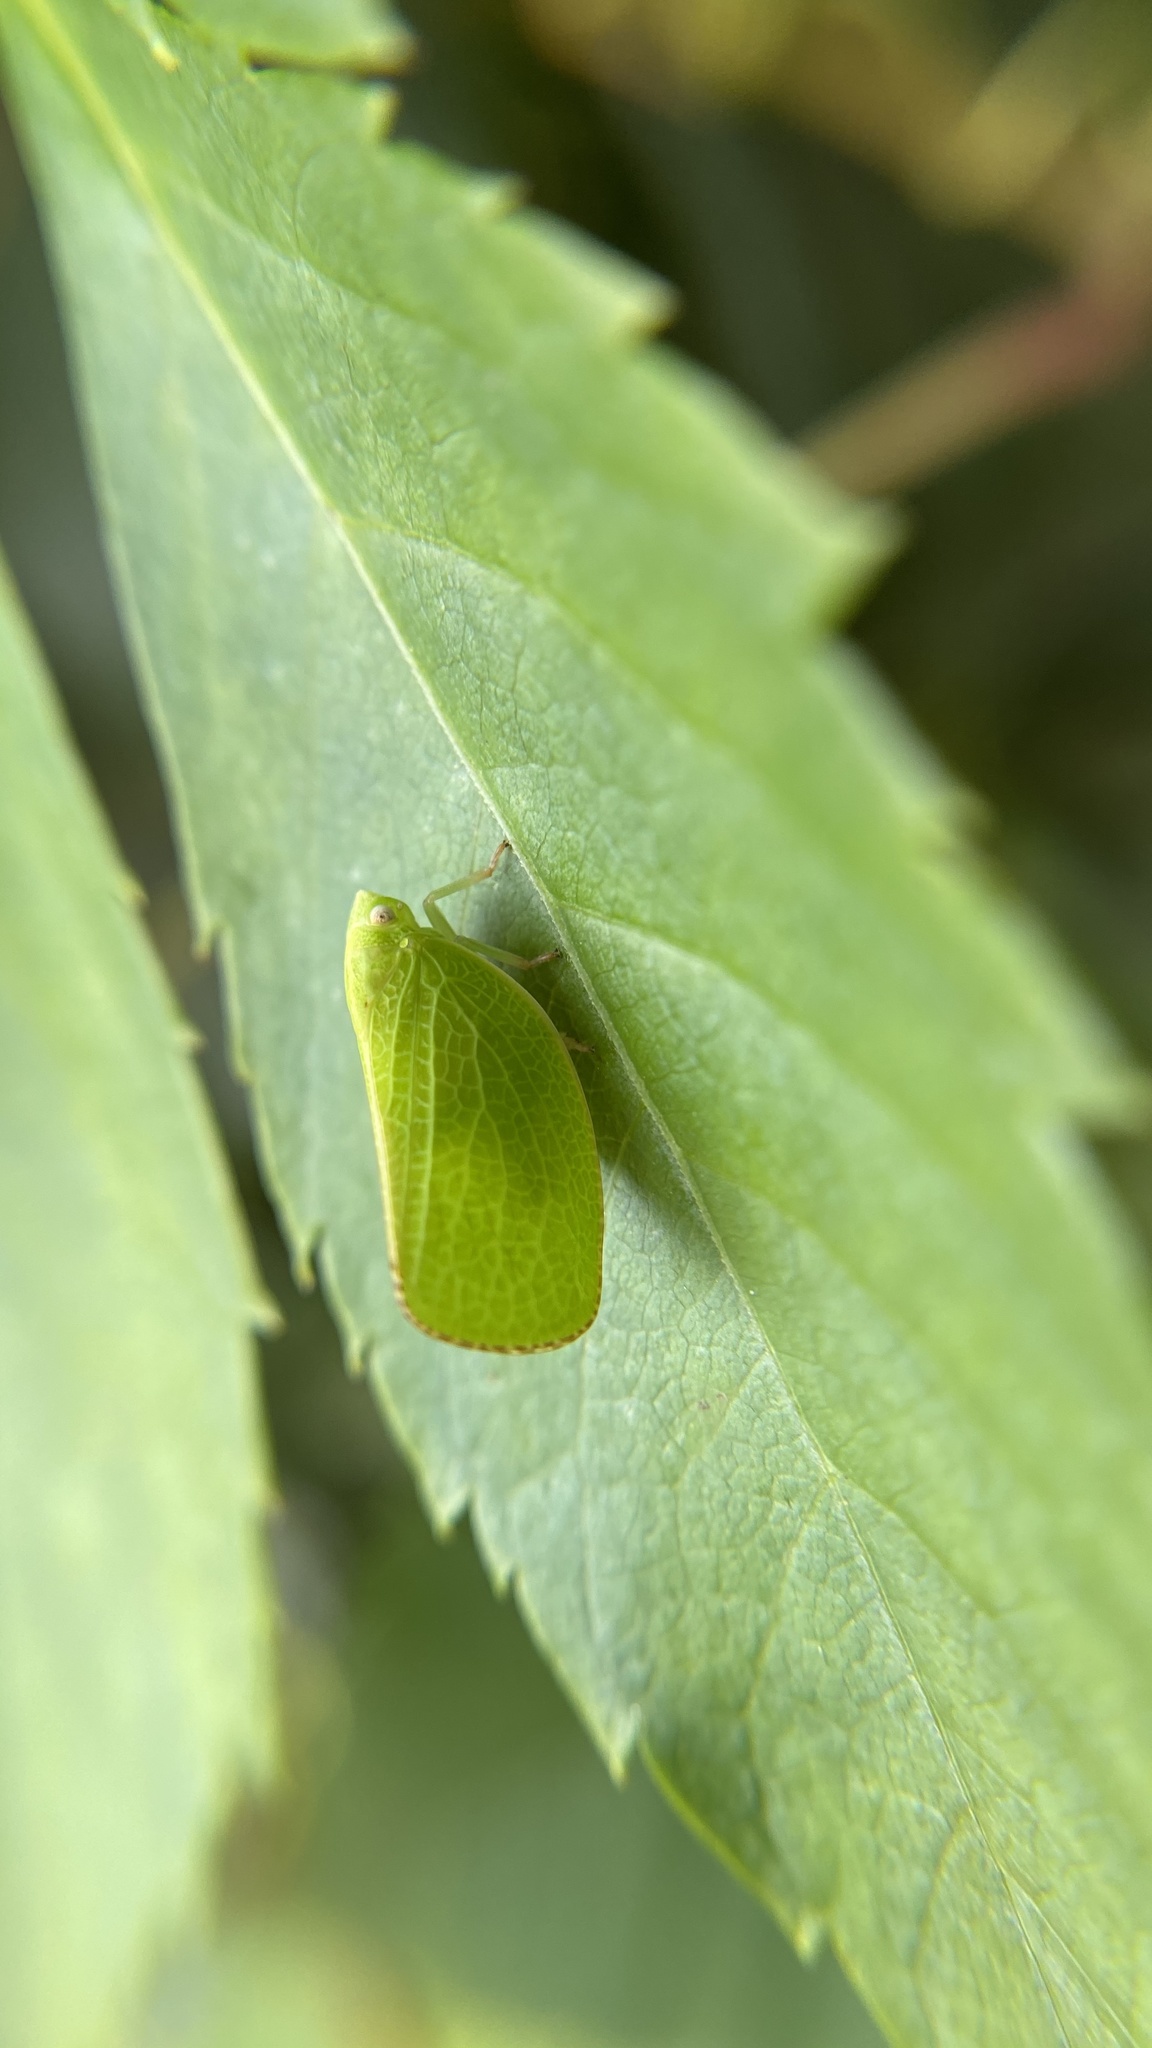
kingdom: Animalia
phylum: Arthropoda
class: Insecta
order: Hemiptera
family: Acanaloniidae
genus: Acanalonia
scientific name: Acanalonia conica
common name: Green cone-headed planthopper
